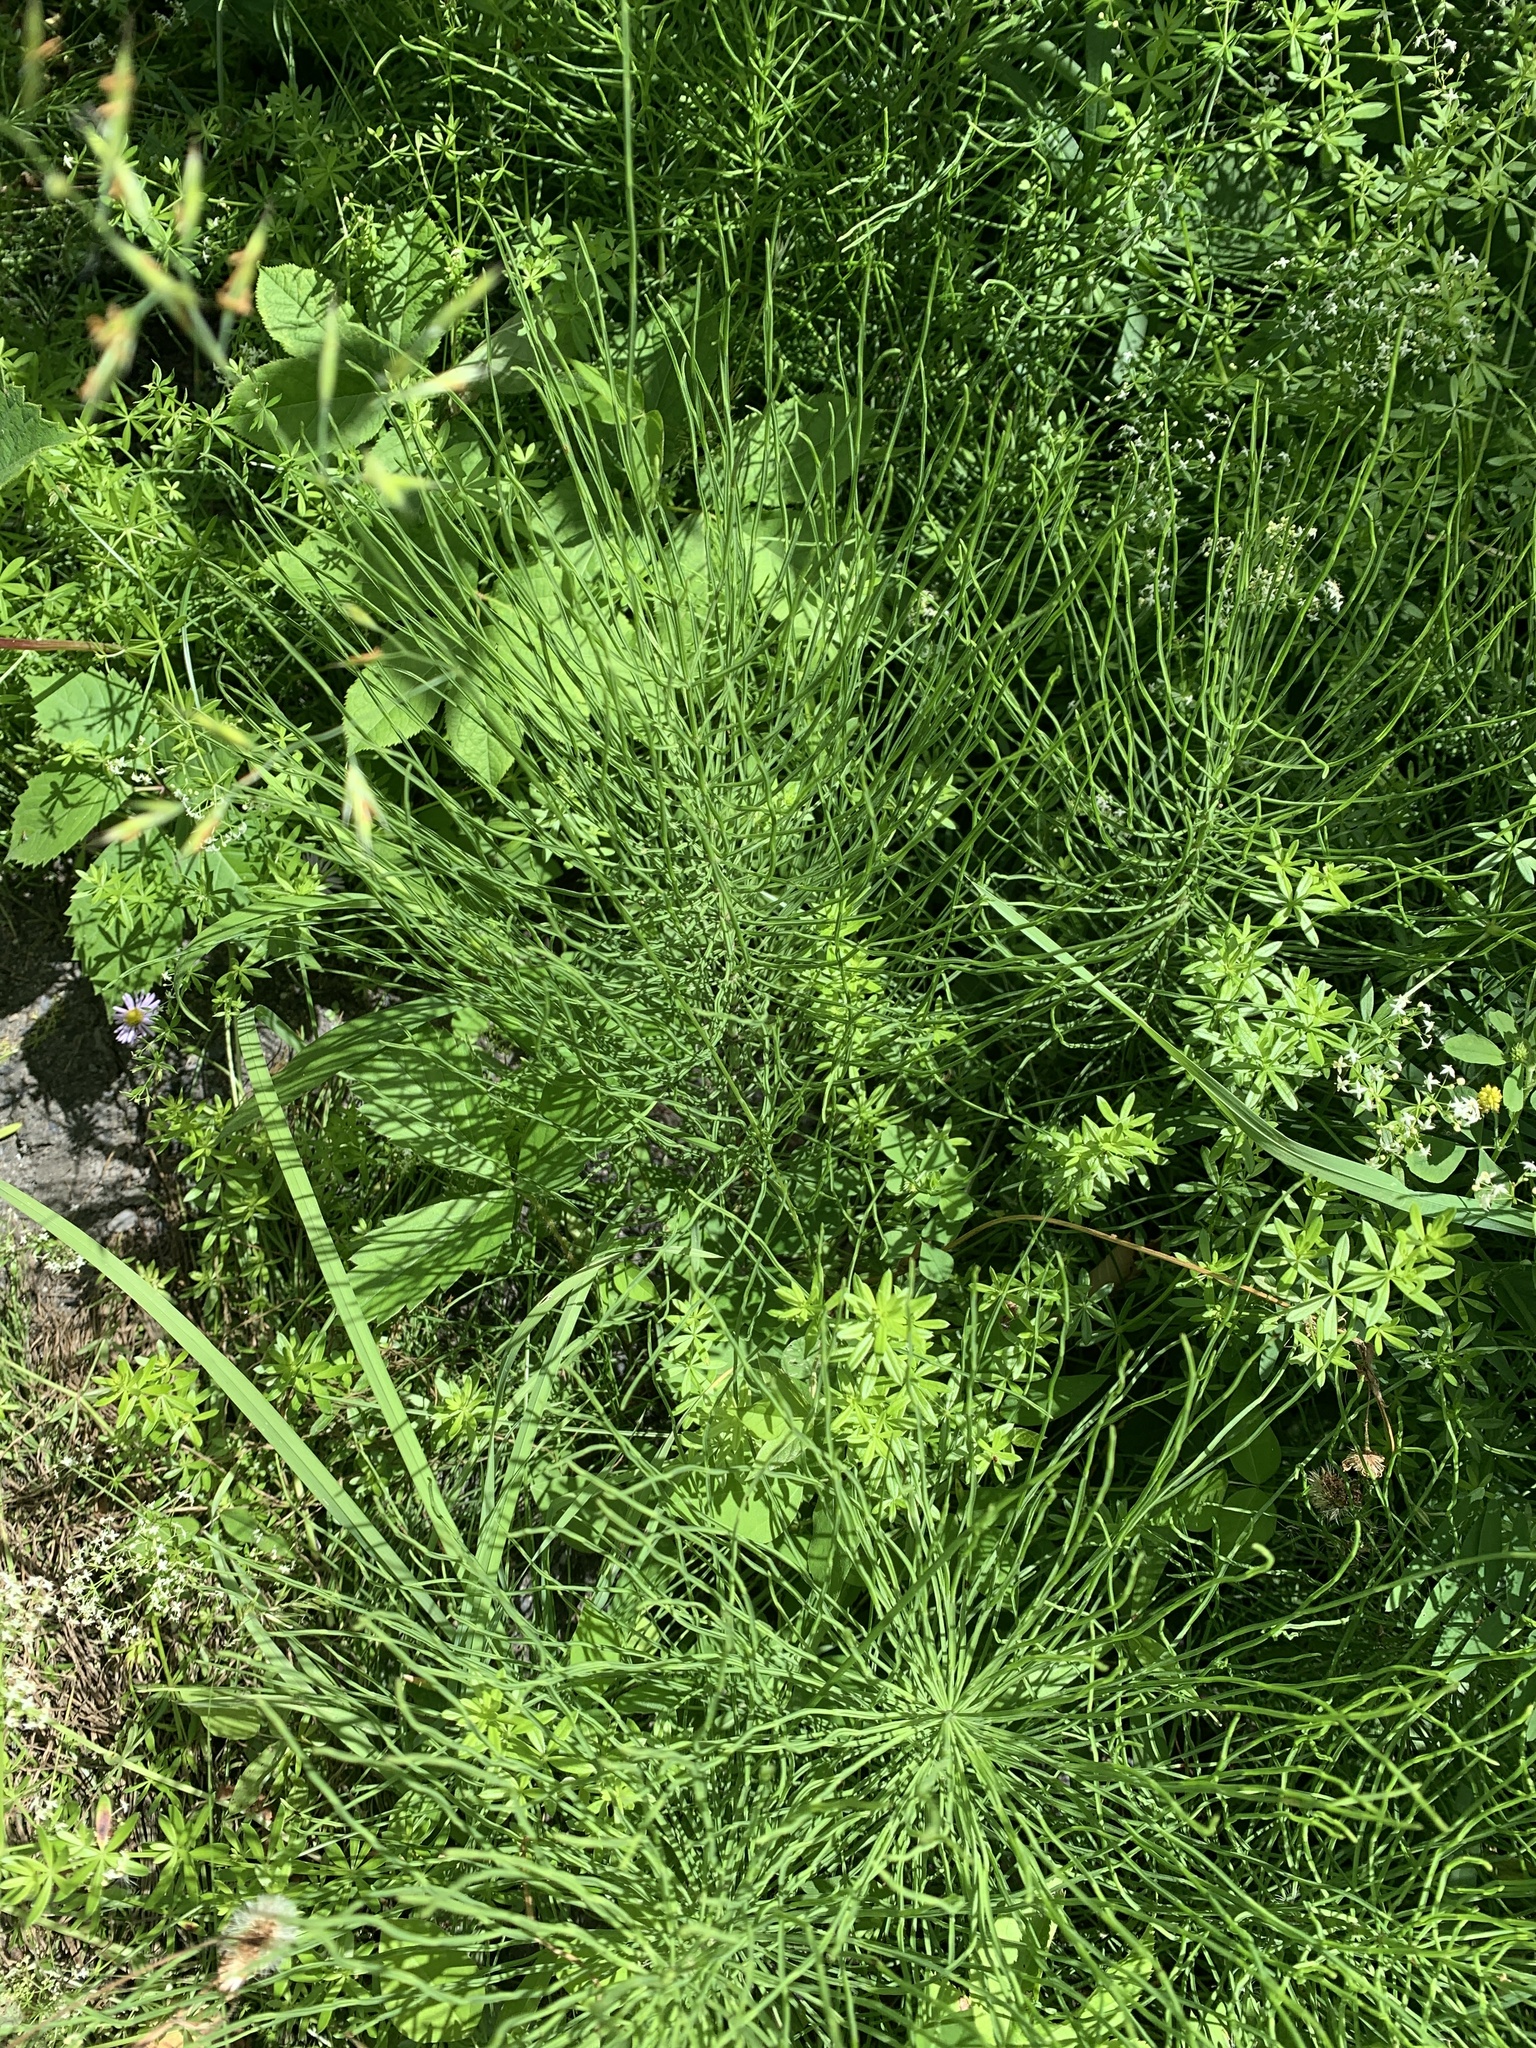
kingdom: Plantae
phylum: Tracheophyta
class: Polypodiopsida
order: Equisetales
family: Equisetaceae
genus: Equisetum
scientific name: Equisetum arvense
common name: Field horsetail
